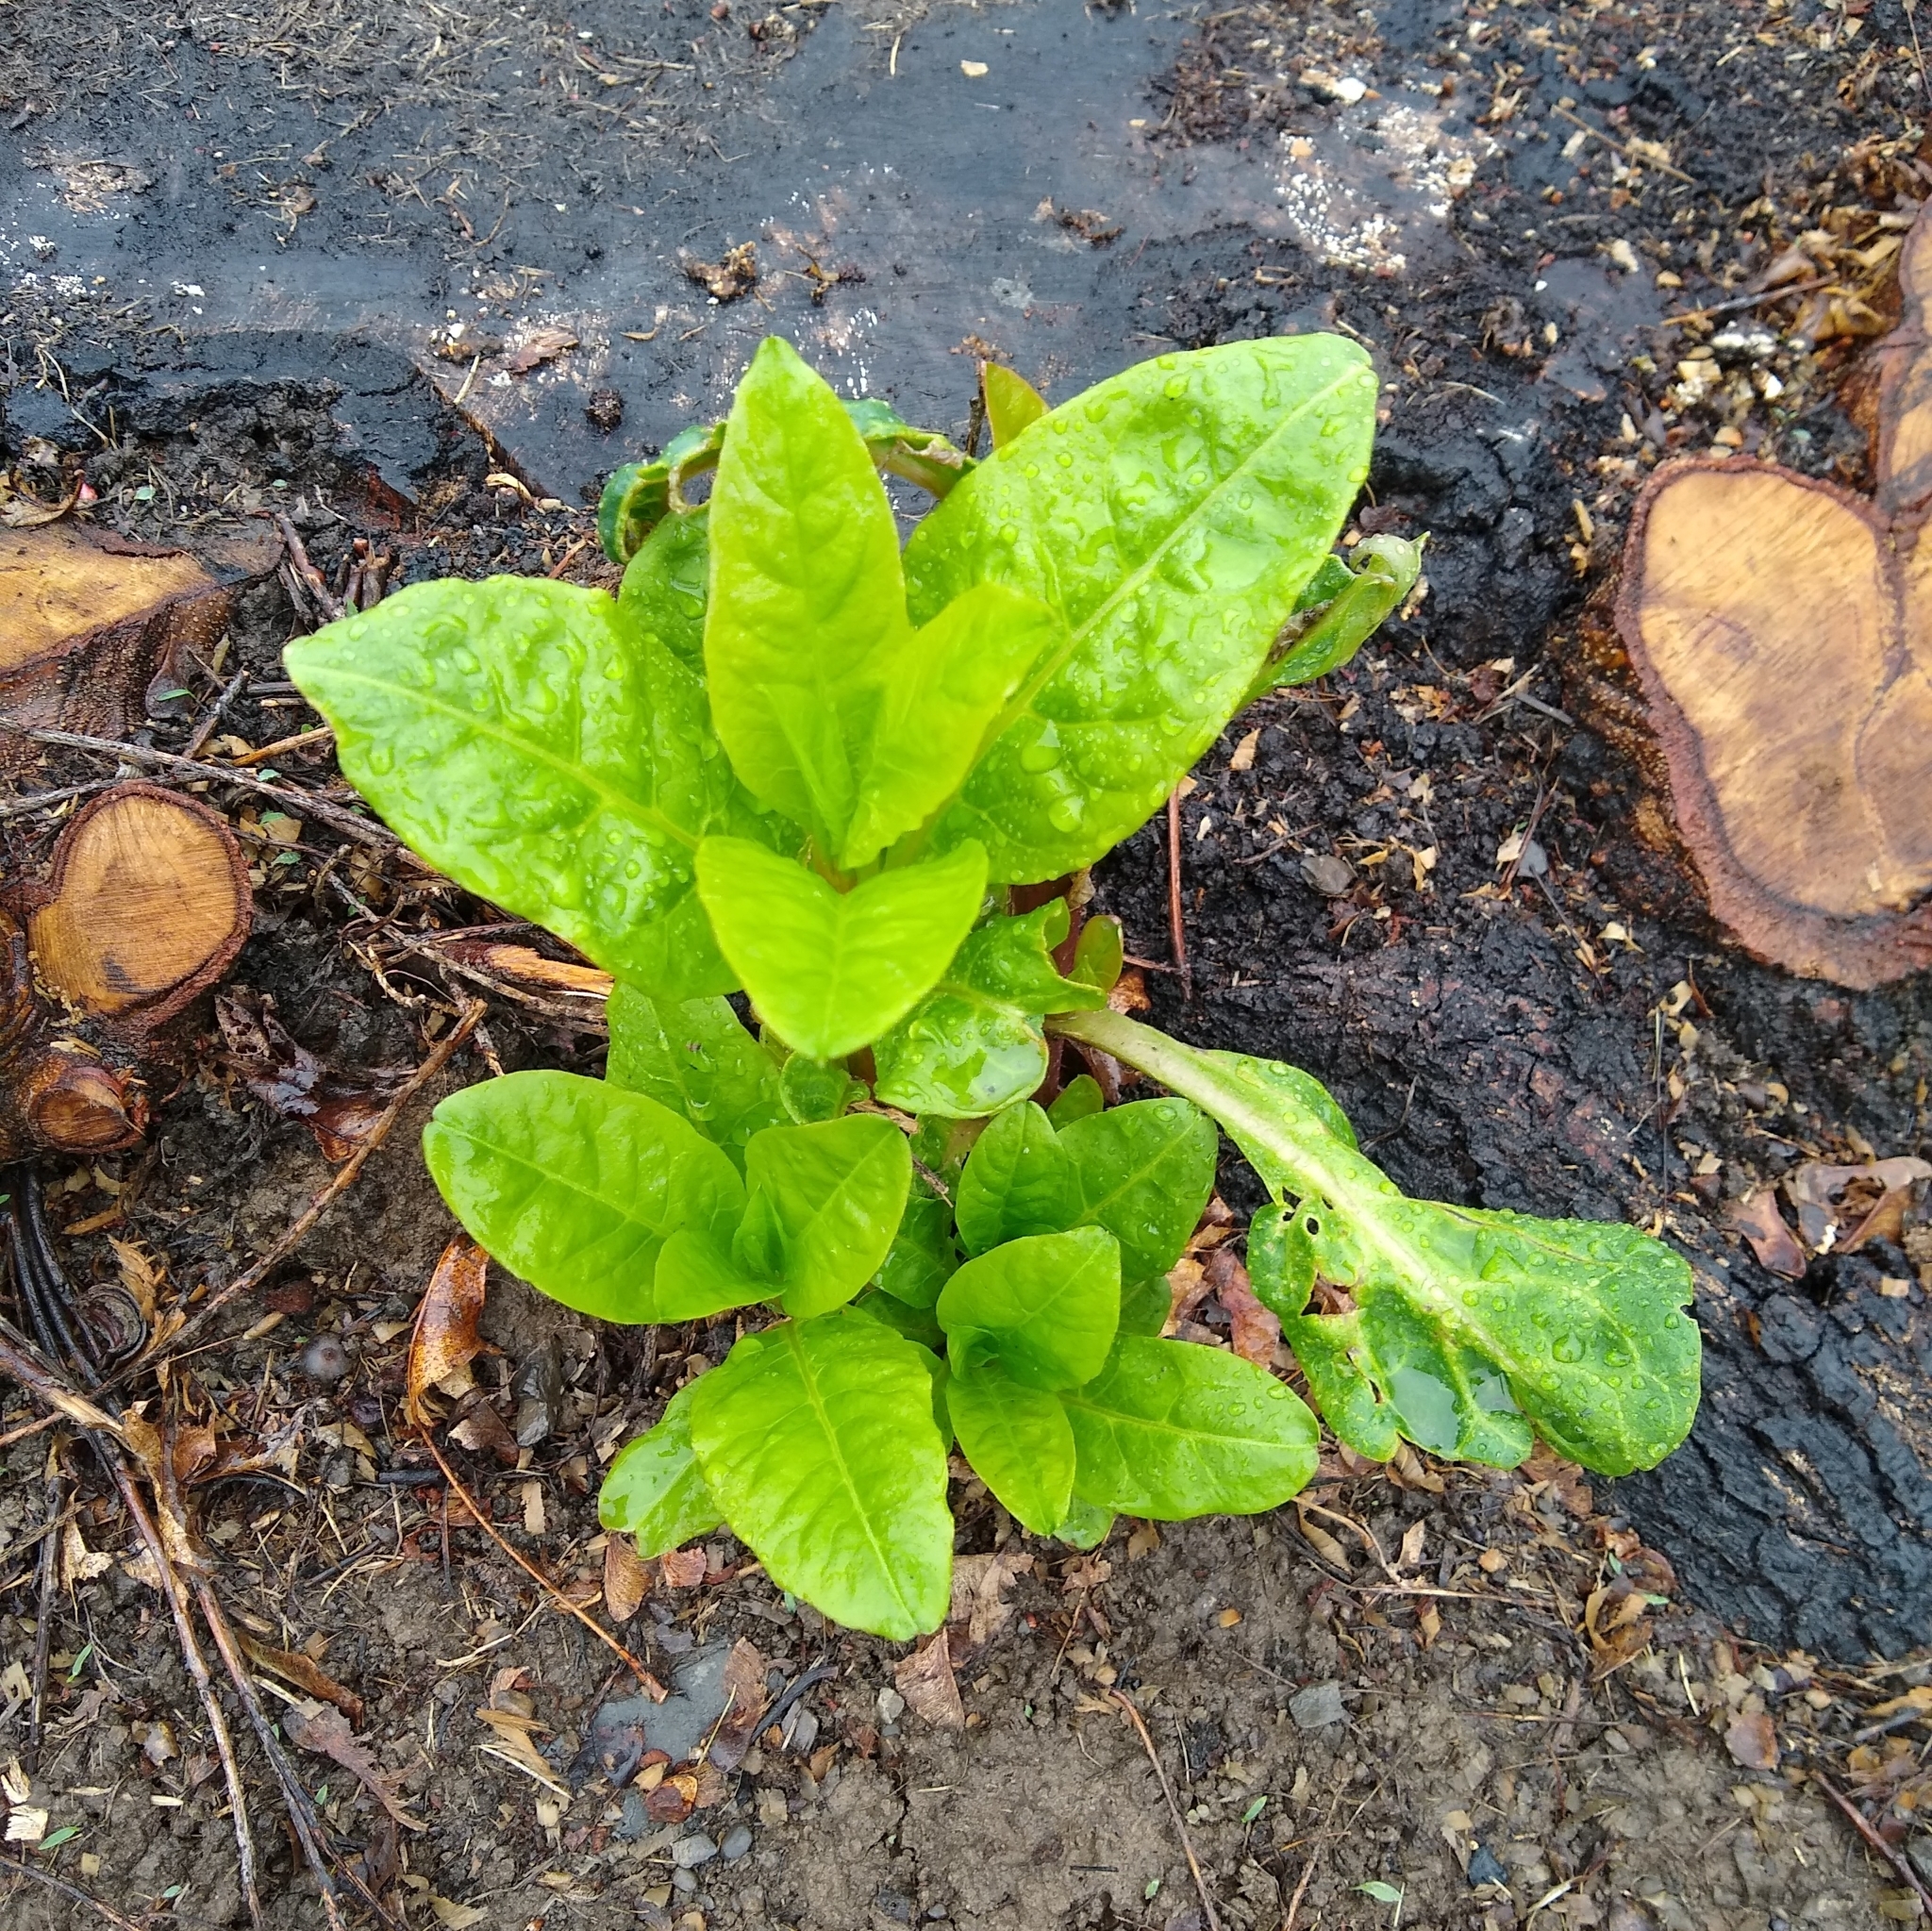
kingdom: Plantae
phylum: Tracheophyta
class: Magnoliopsida
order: Caryophyllales
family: Phytolaccaceae
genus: Phytolacca
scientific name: Phytolacca americana
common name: American pokeweed
